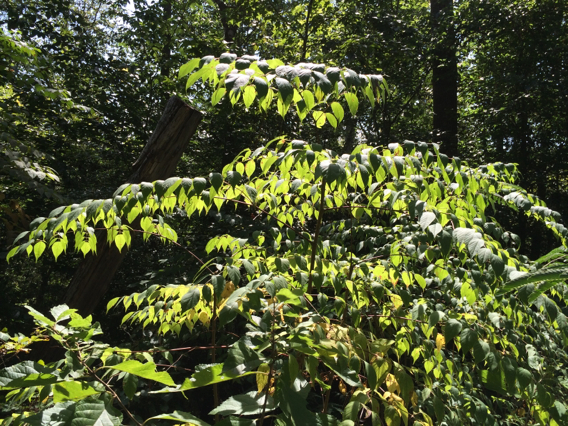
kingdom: Plantae
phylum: Tracheophyta
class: Magnoliopsida
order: Apiales
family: Araliaceae
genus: Aralia
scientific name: Aralia spinosa
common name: Hercules'-club
